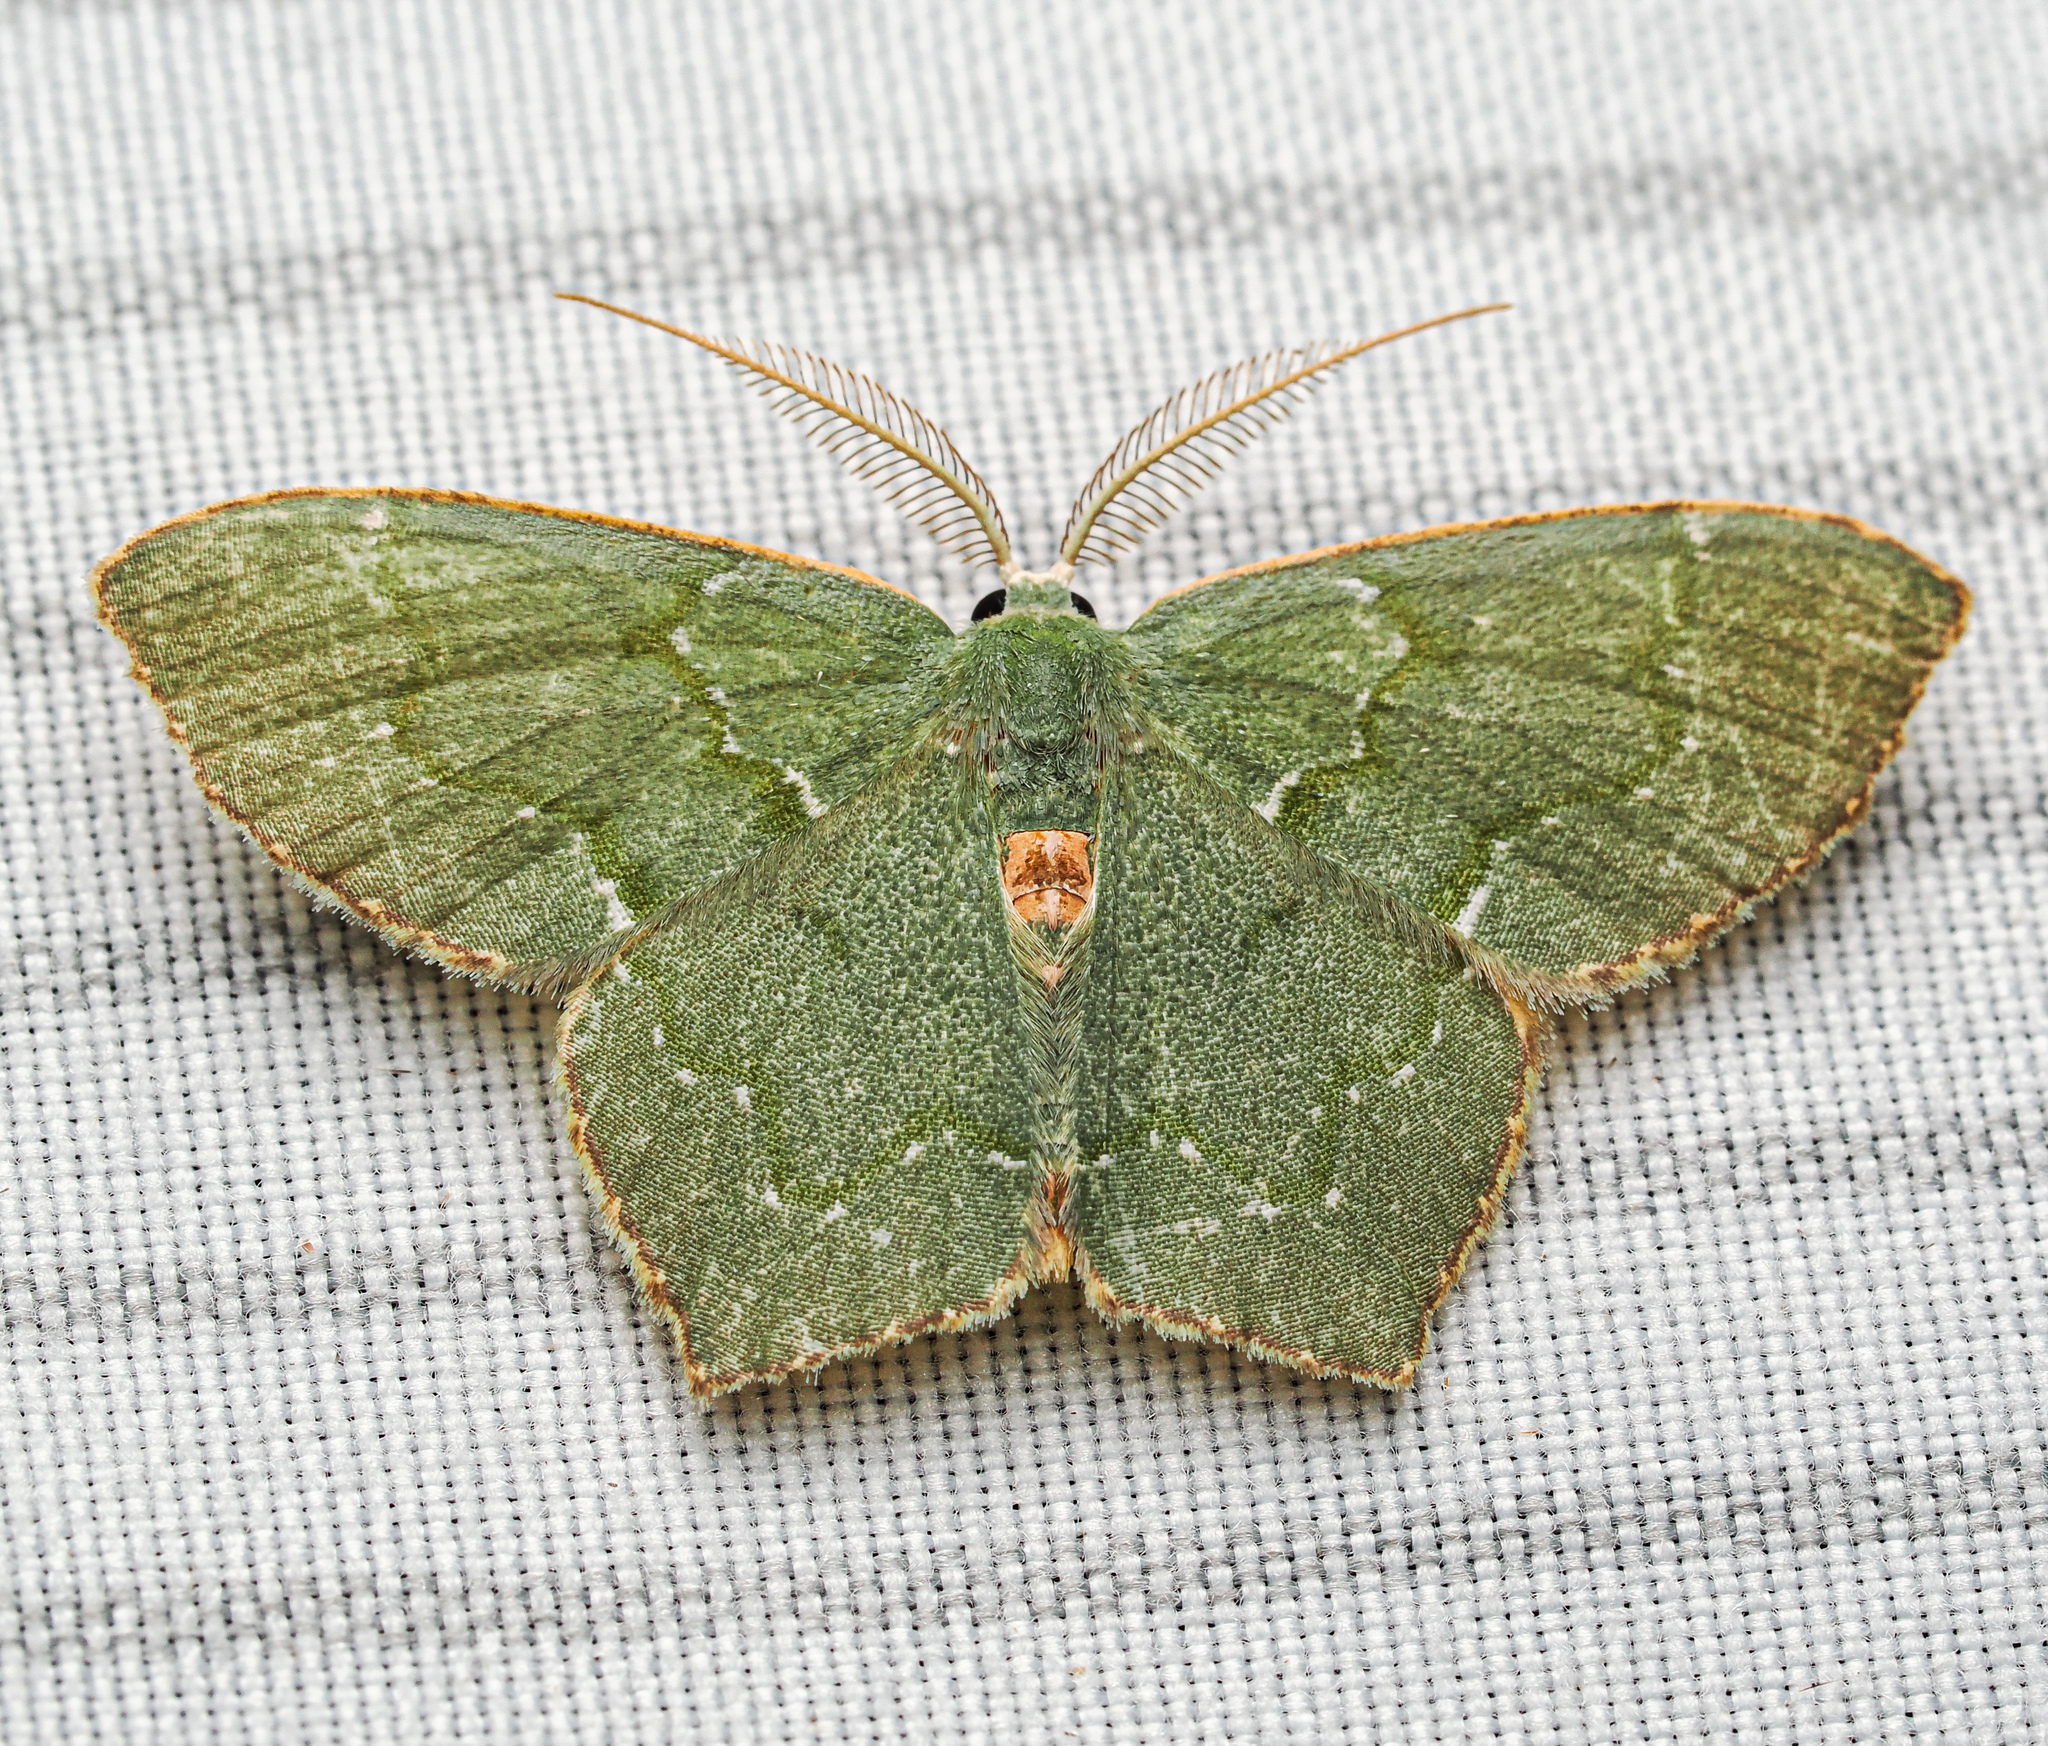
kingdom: Animalia
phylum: Arthropoda
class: Insecta
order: Lepidoptera
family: Geometridae
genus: Thalera
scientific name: Thalera pistasciaria
